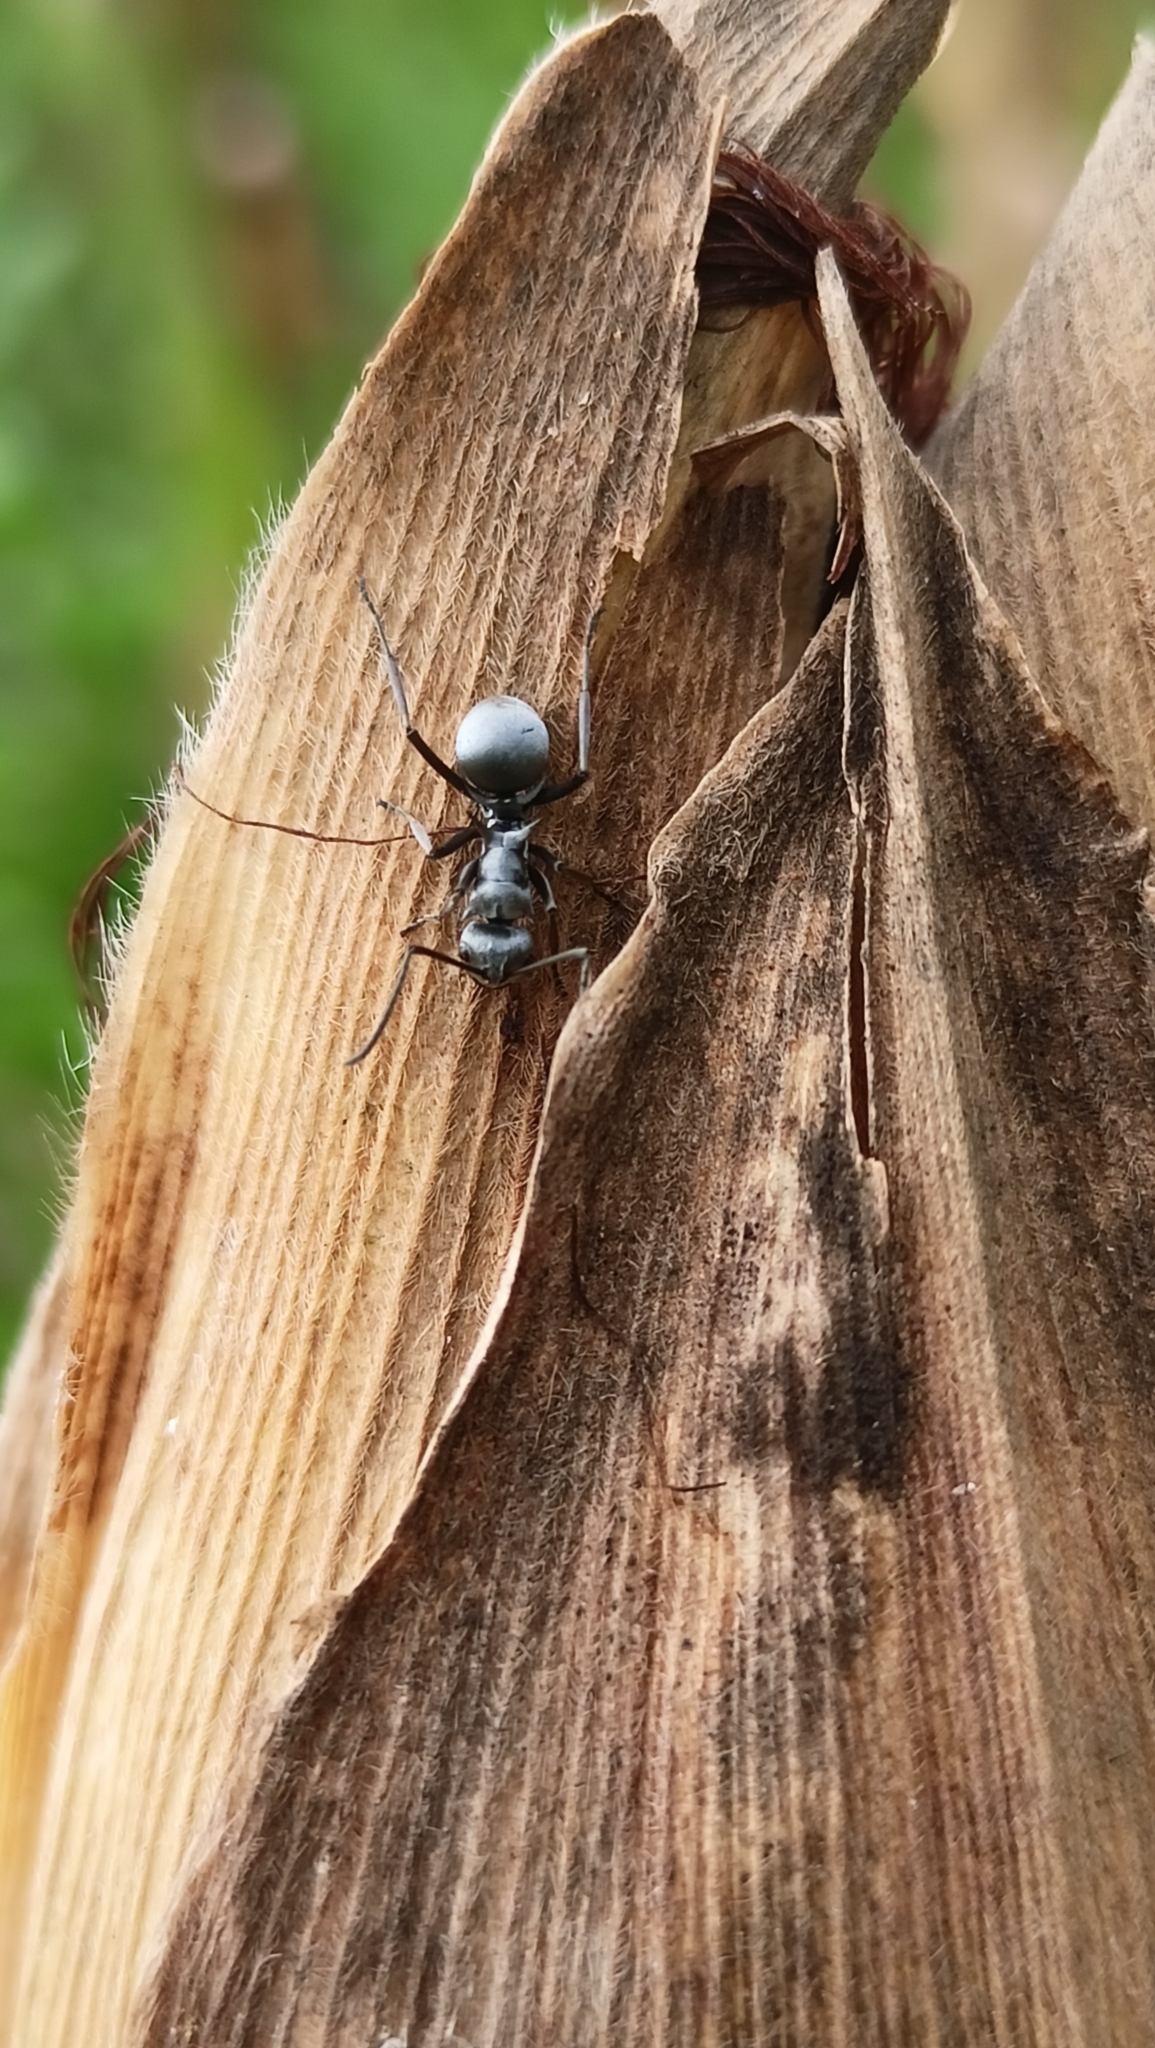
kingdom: Animalia
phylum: Arthropoda
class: Insecta
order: Hymenoptera
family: Formicidae
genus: Polyrhachis
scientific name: Polyrhachis dives
